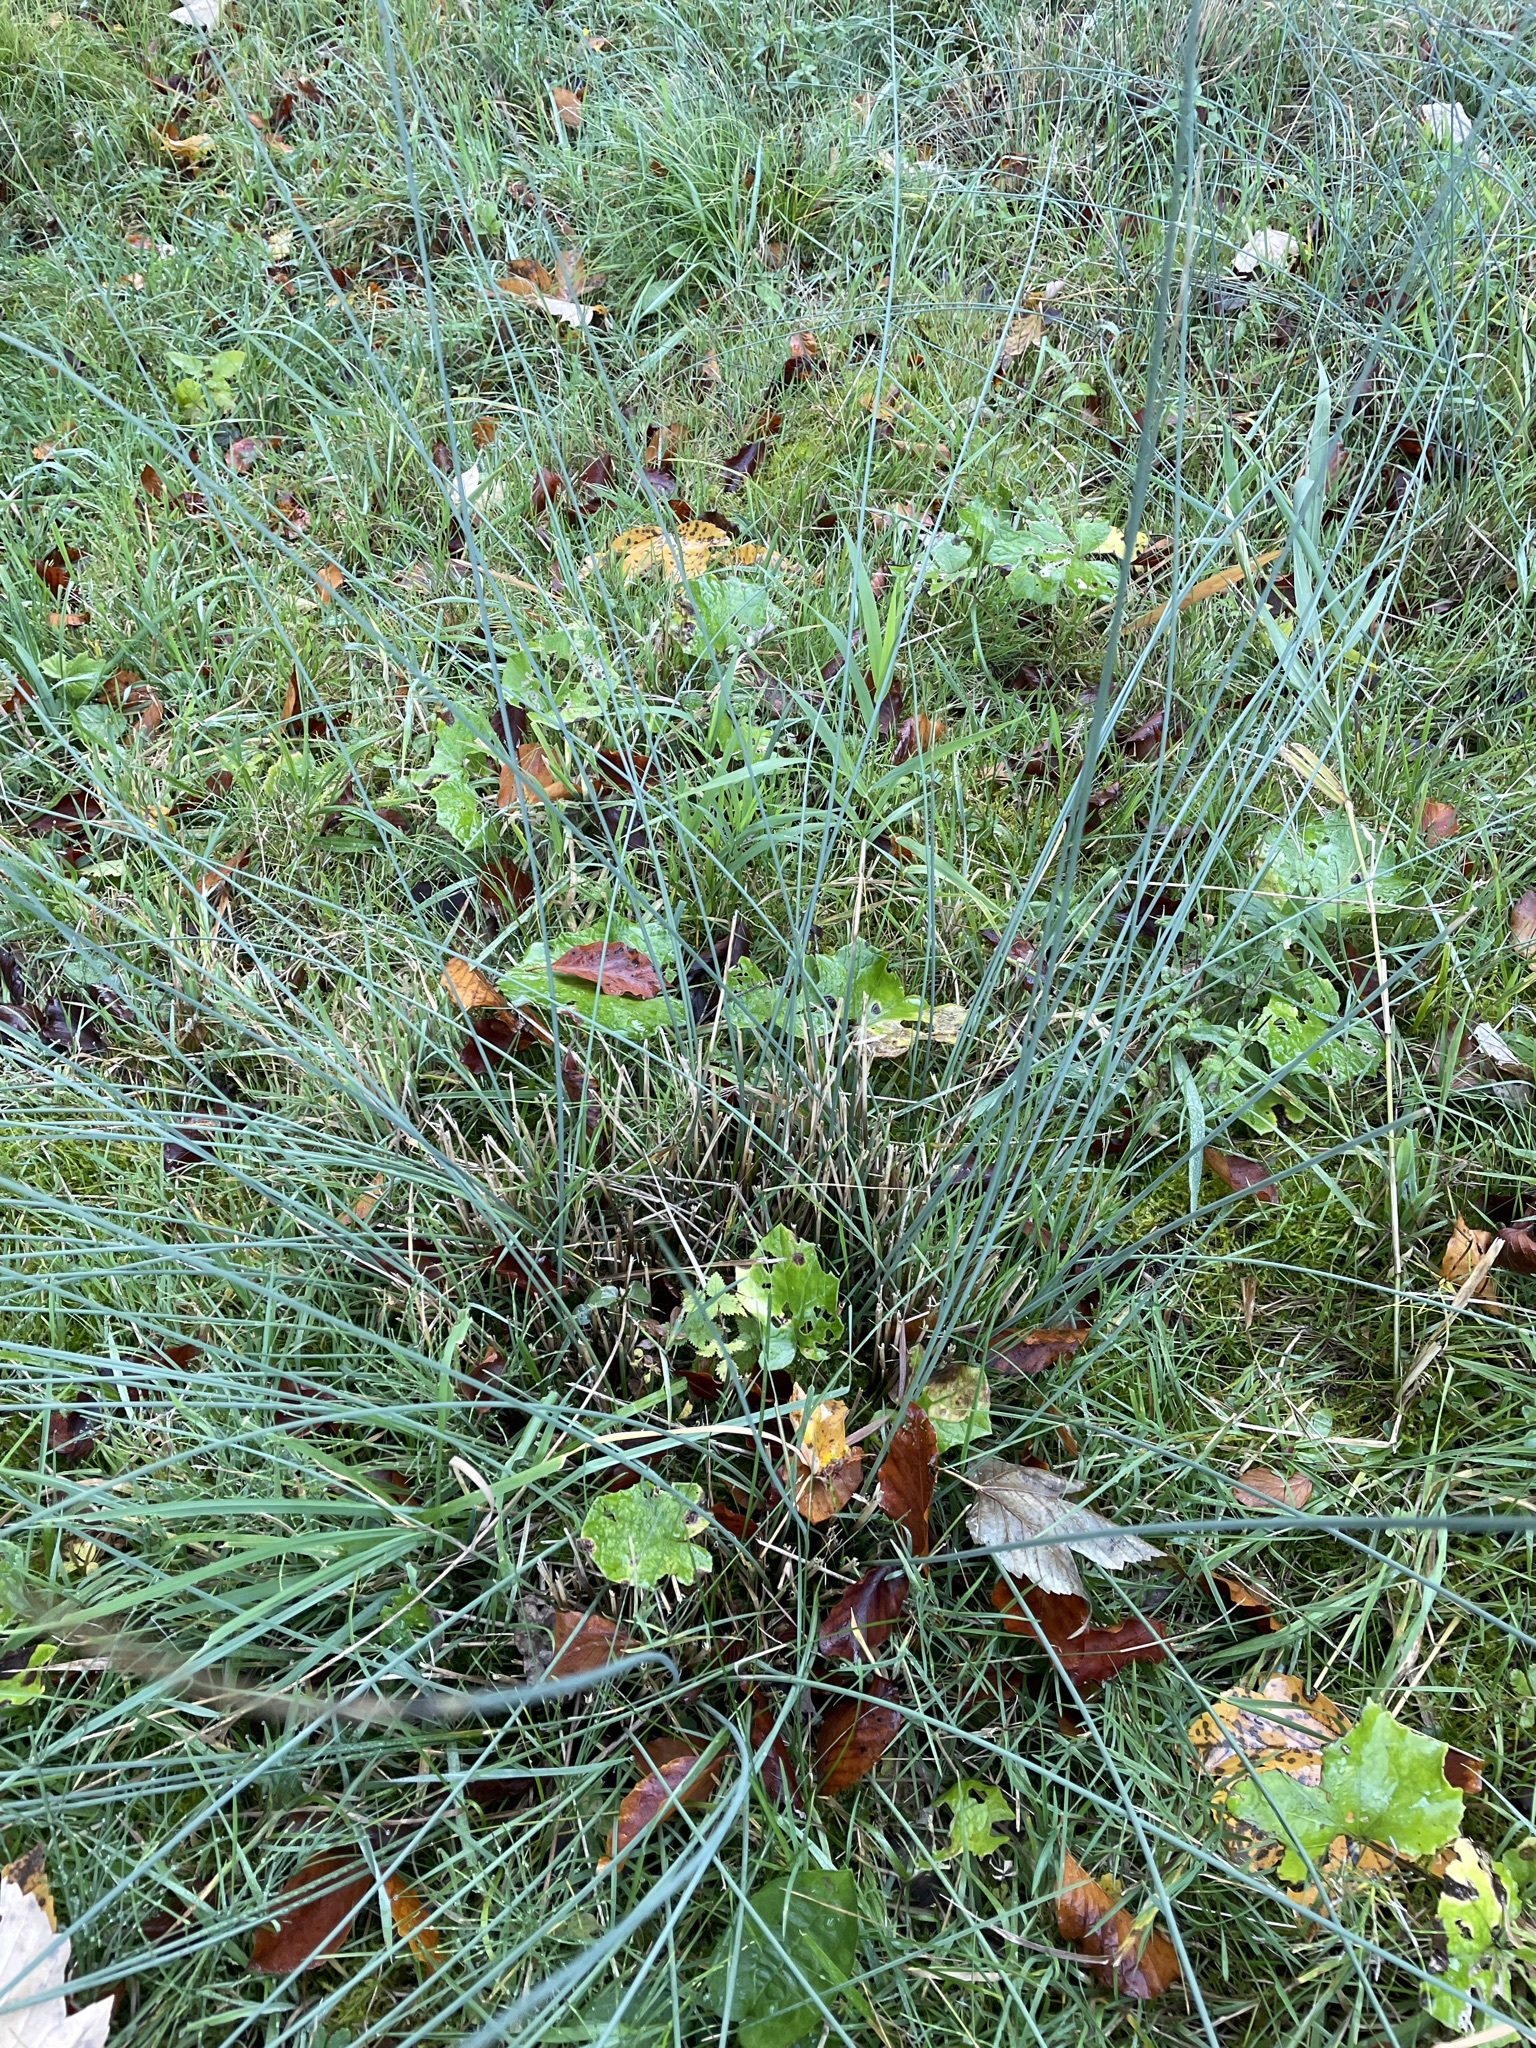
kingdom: Plantae
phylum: Tracheophyta
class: Liliopsida
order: Poales
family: Juncaceae
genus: Juncus
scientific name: Juncus inflexus
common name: Hard rush
